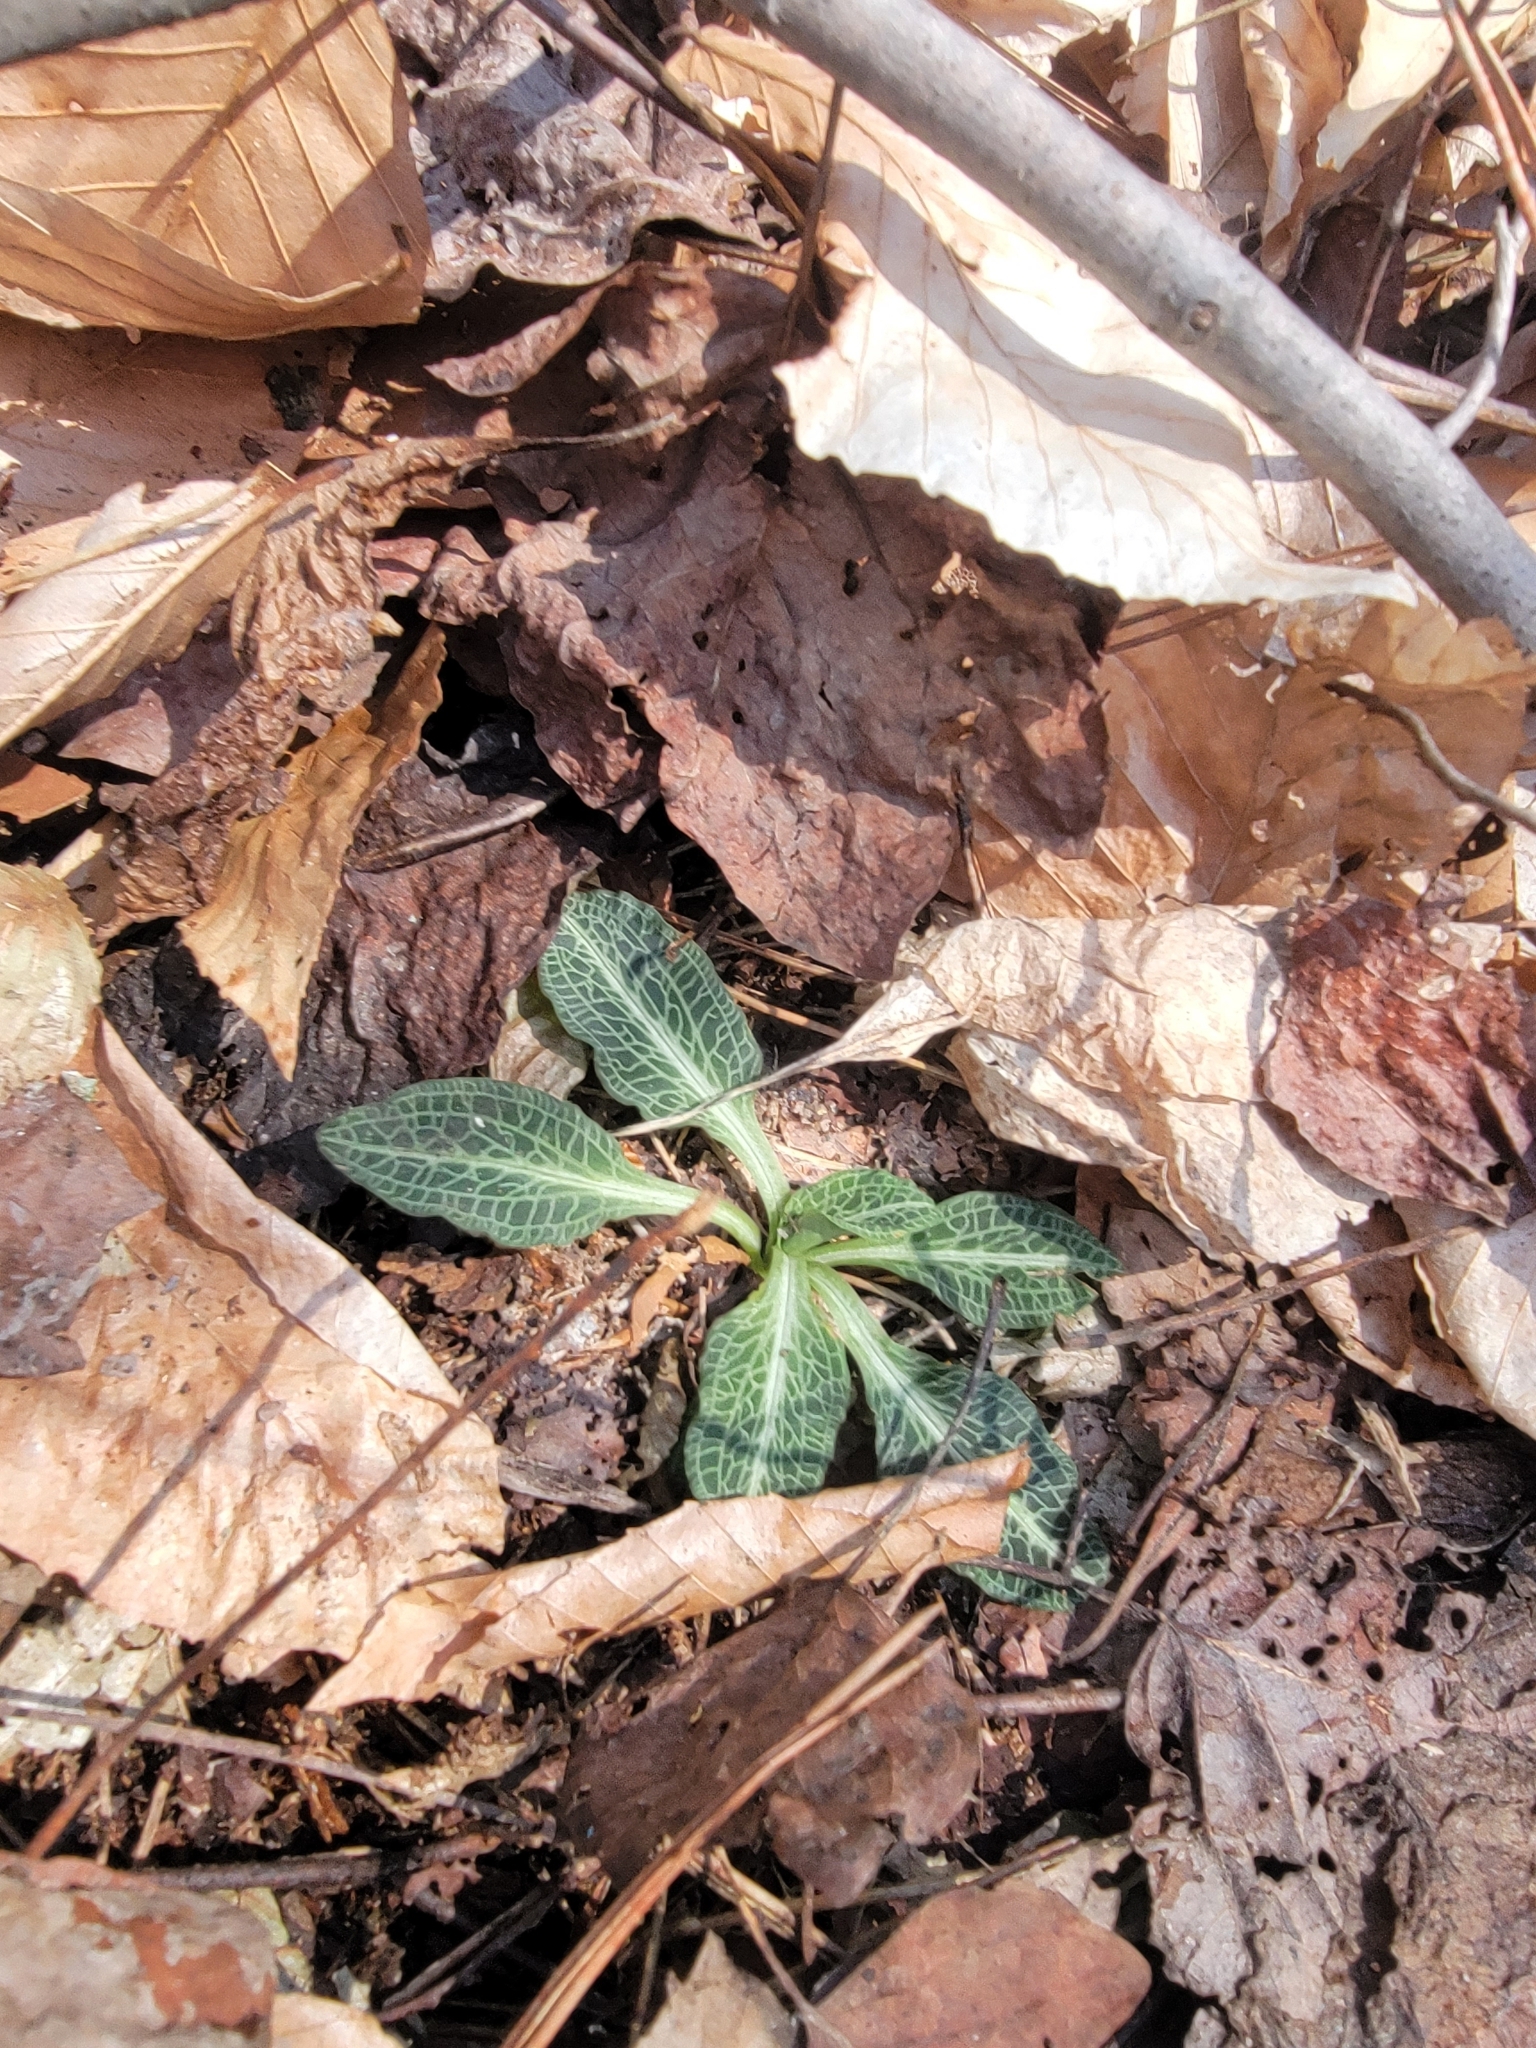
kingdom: Plantae
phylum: Tracheophyta
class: Liliopsida
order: Asparagales
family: Orchidaceae
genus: Goodyera
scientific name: Goodyera pubescens
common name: Downy rattlesnake-plantain
